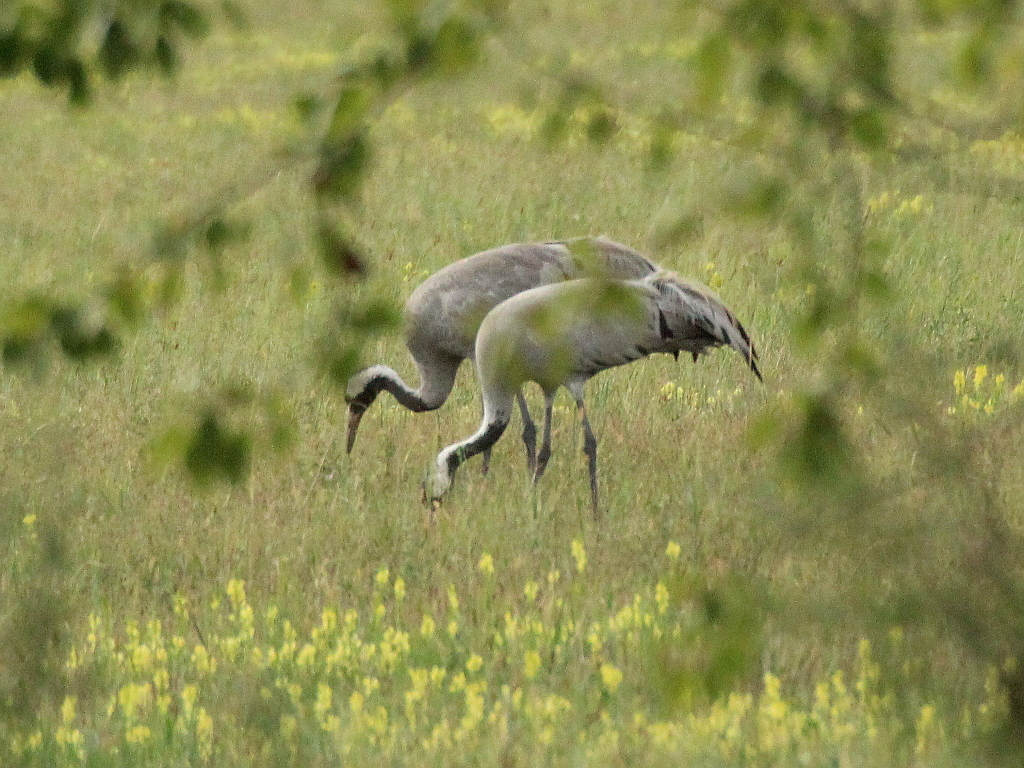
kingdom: Animalia
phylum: Chordata
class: Aves
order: Gruiformes
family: Gruidae
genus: Grus
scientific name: Grus grus
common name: Common crane
